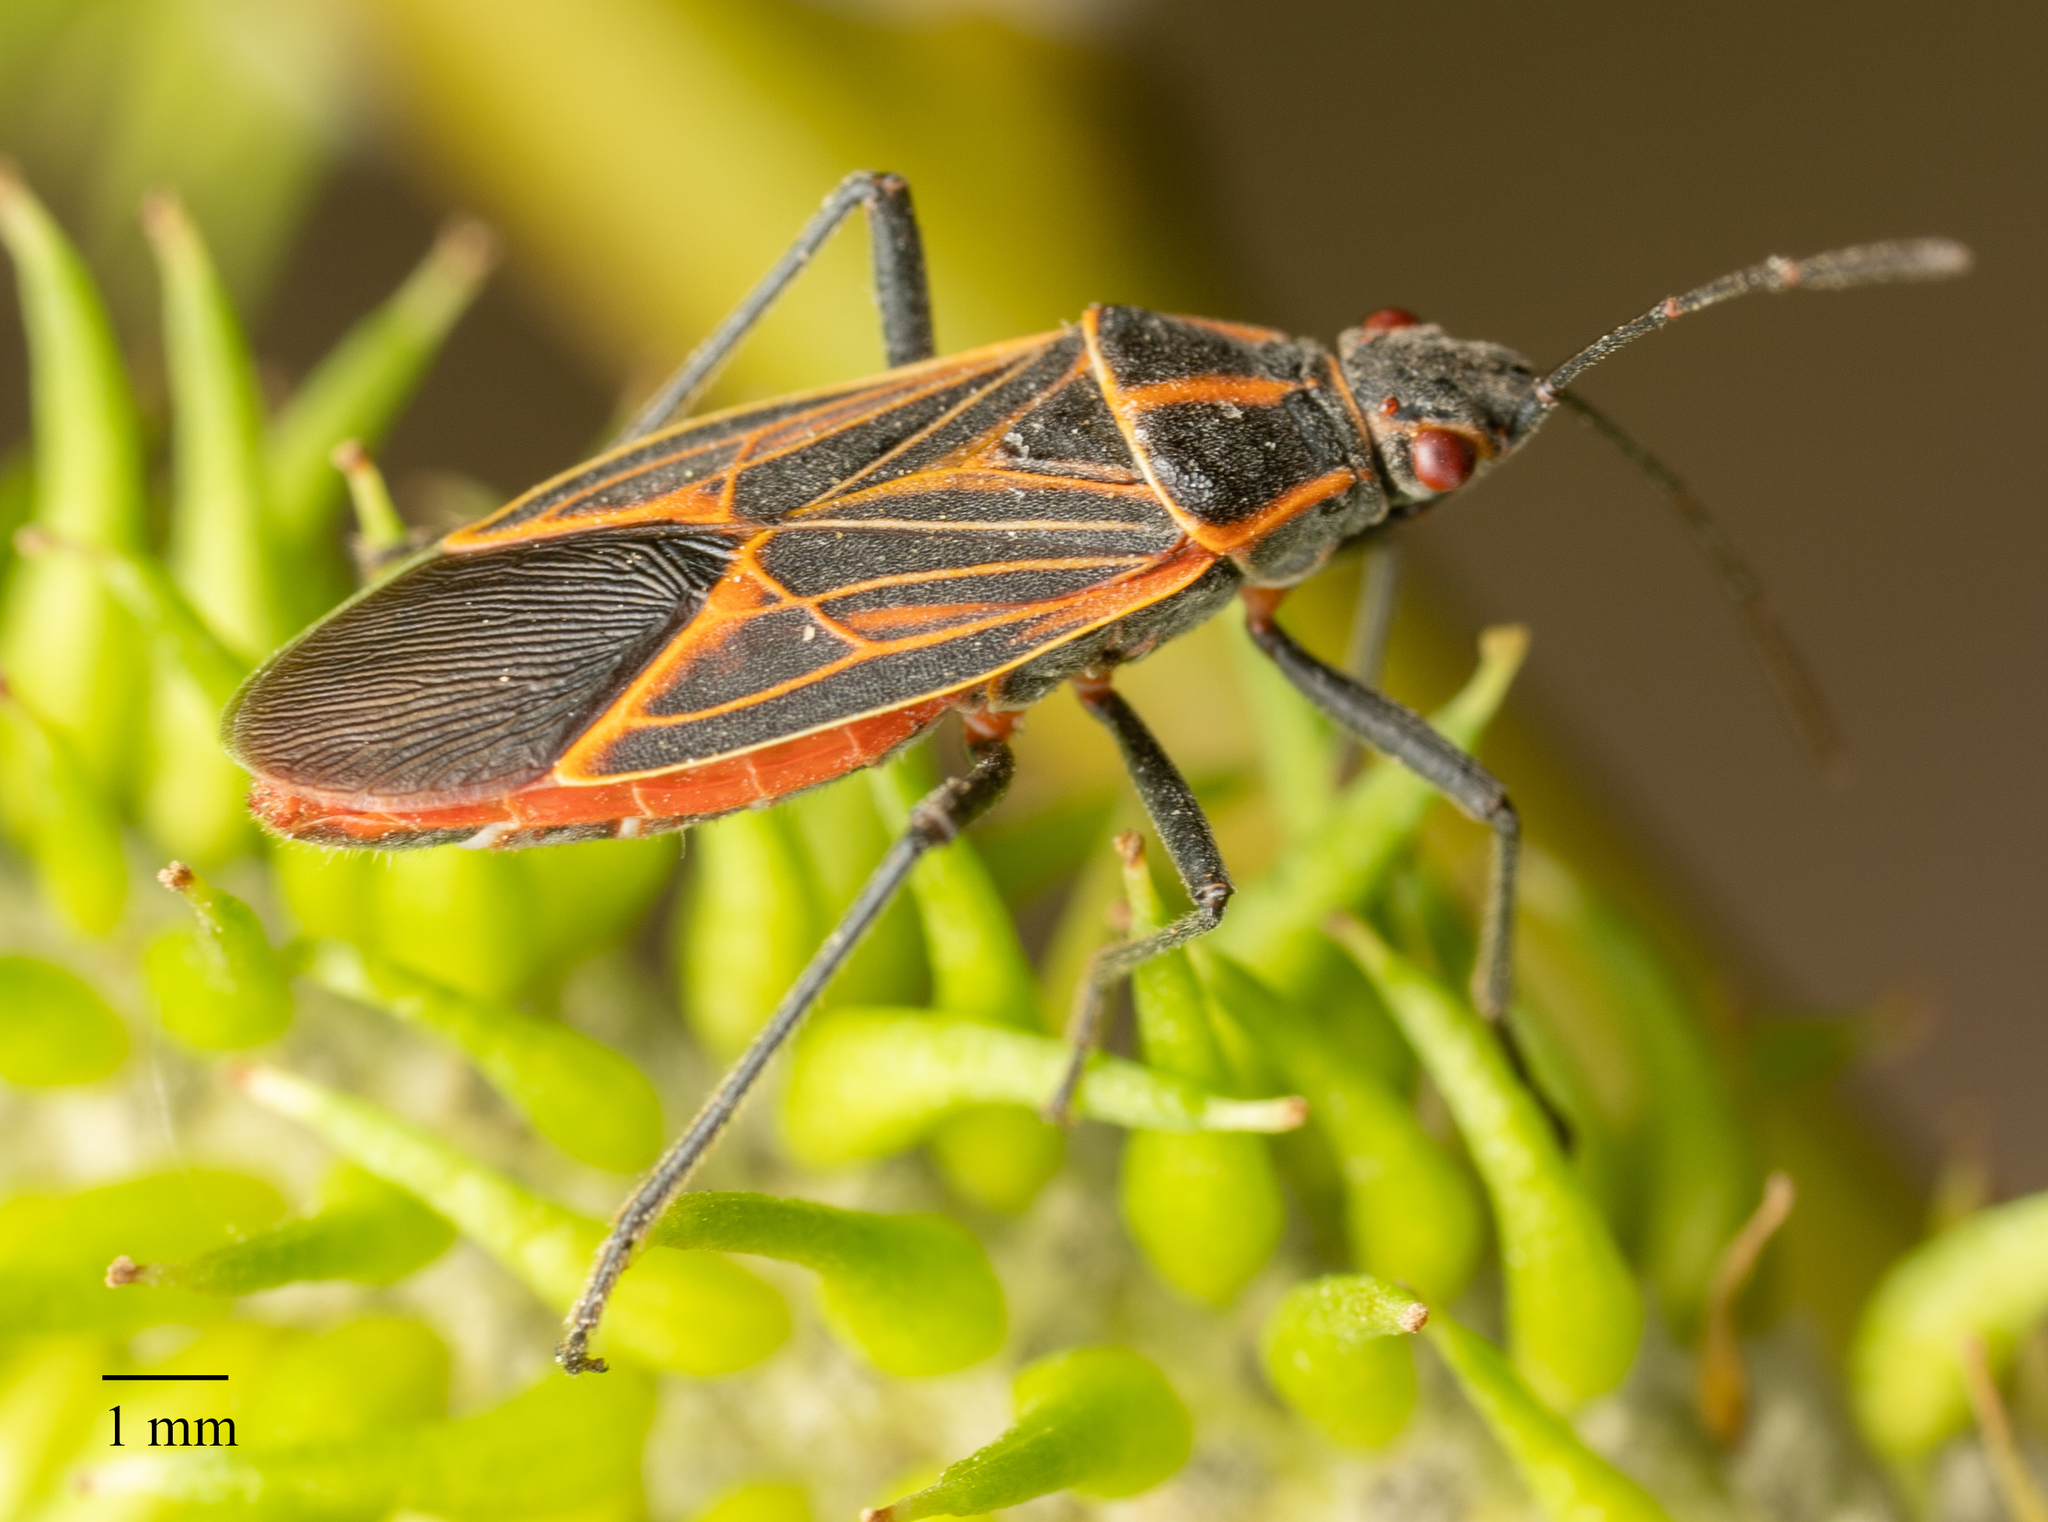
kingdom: Animalia
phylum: Arthropoda
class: Insecta
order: Hemiptera
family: Rhopalidae
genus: Boisea
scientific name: Boisea rubrolineata
